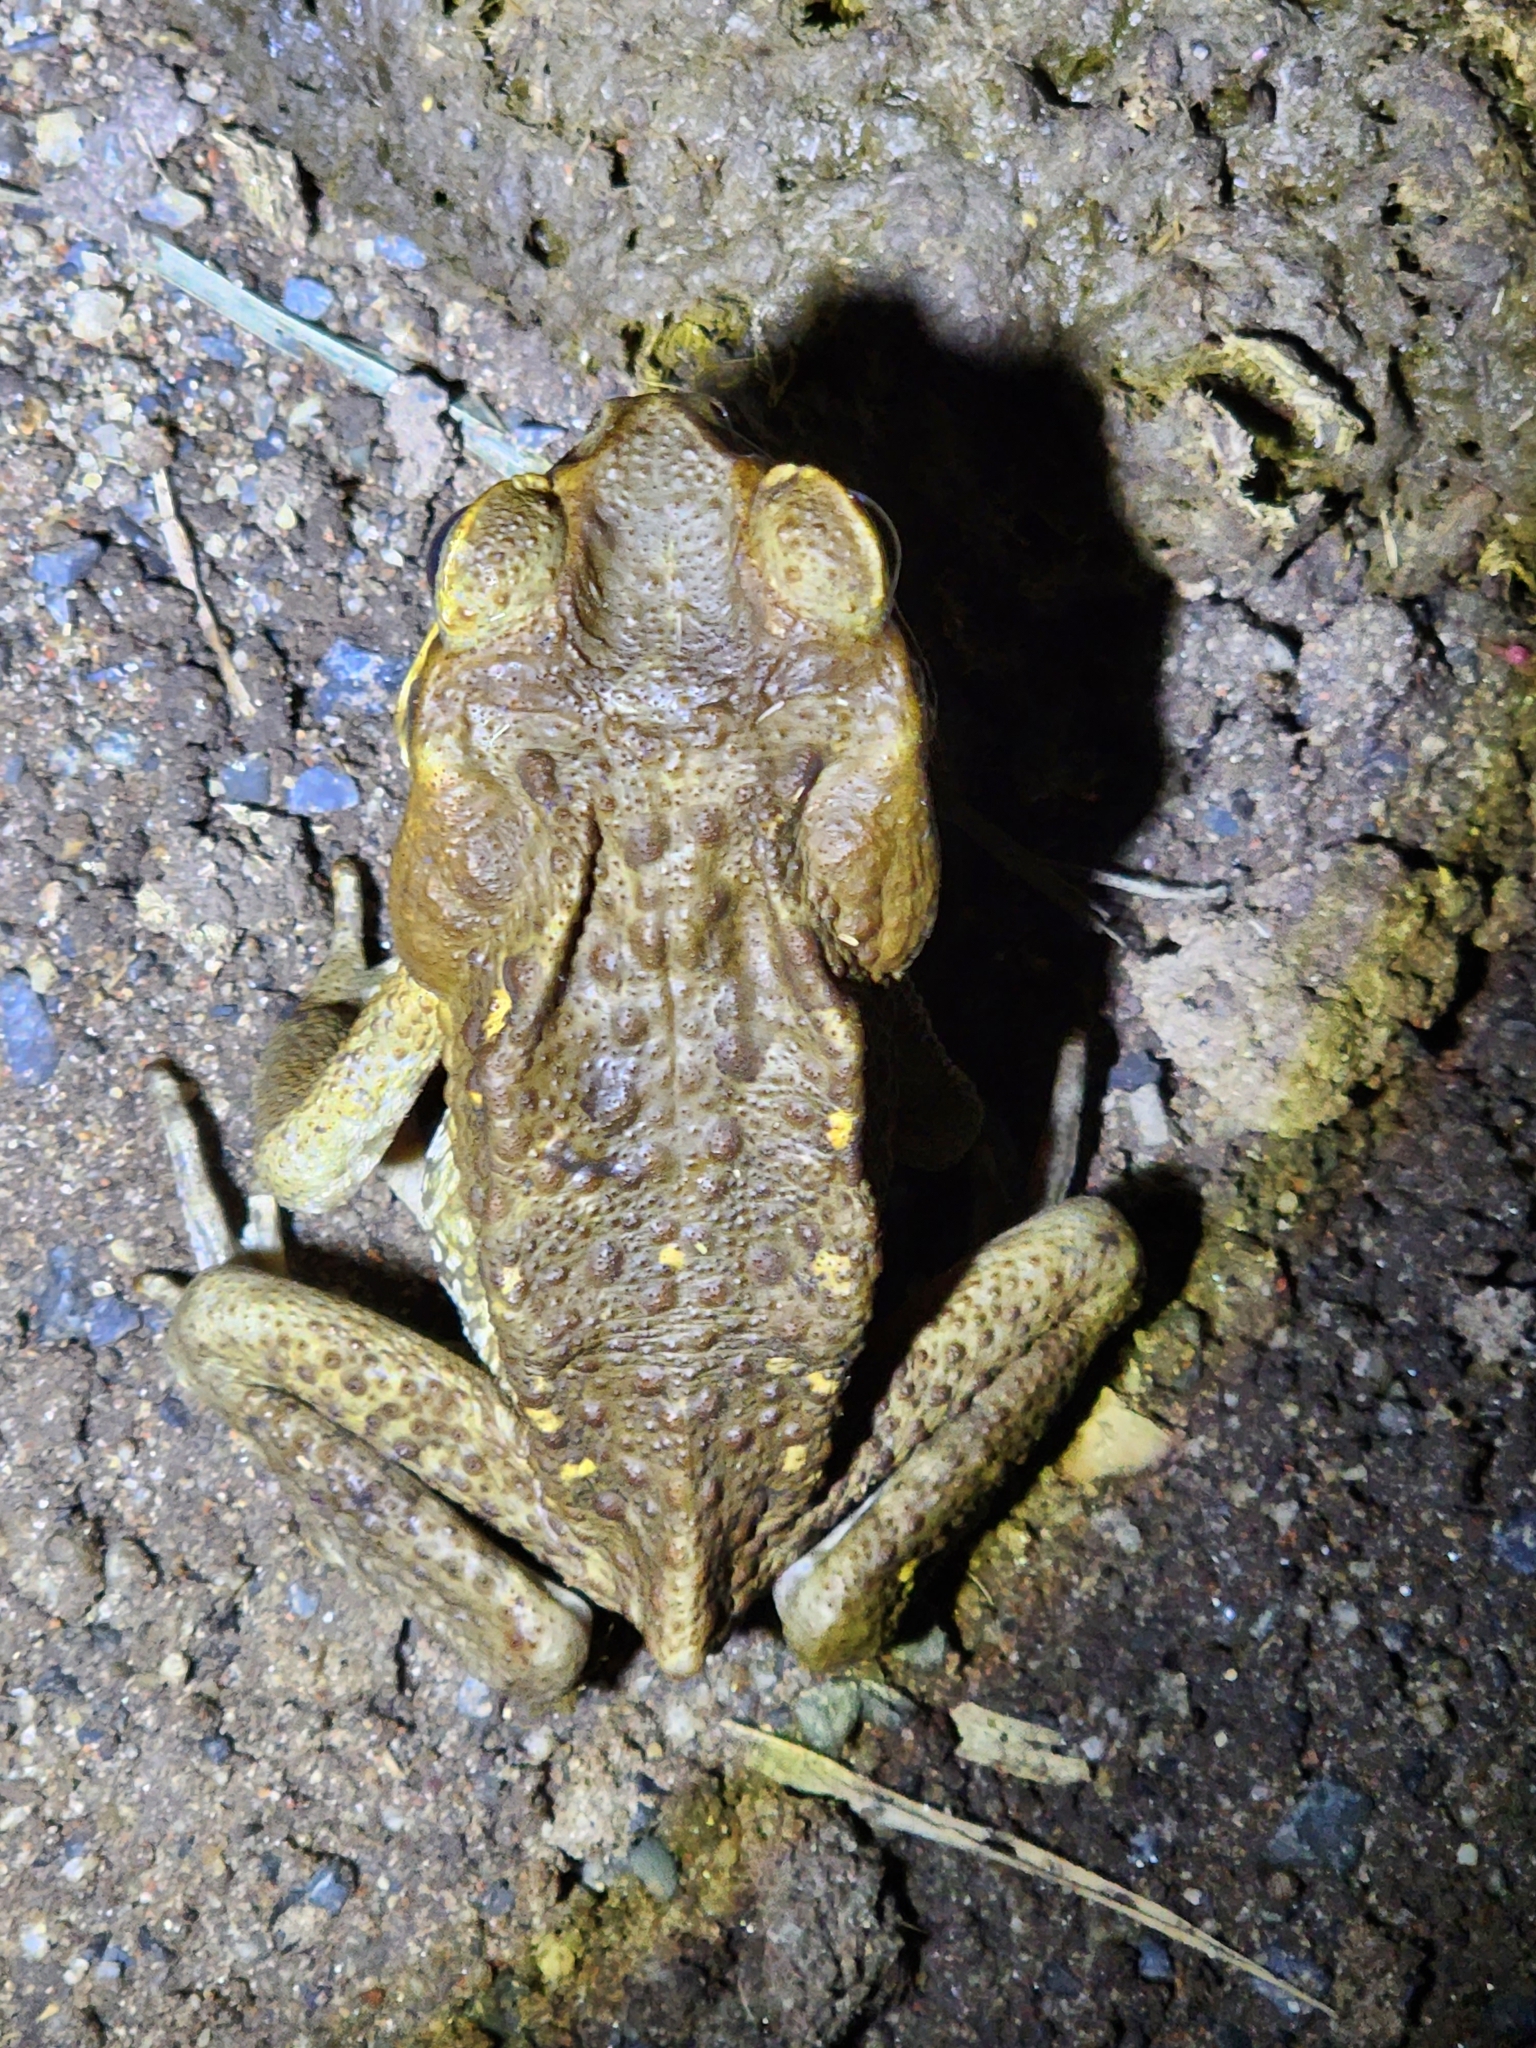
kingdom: Animalia
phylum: Chordata
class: Amphibia
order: Anura
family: Bufonidae
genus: Rhinella
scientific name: Rhinella marina
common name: Cane toad
